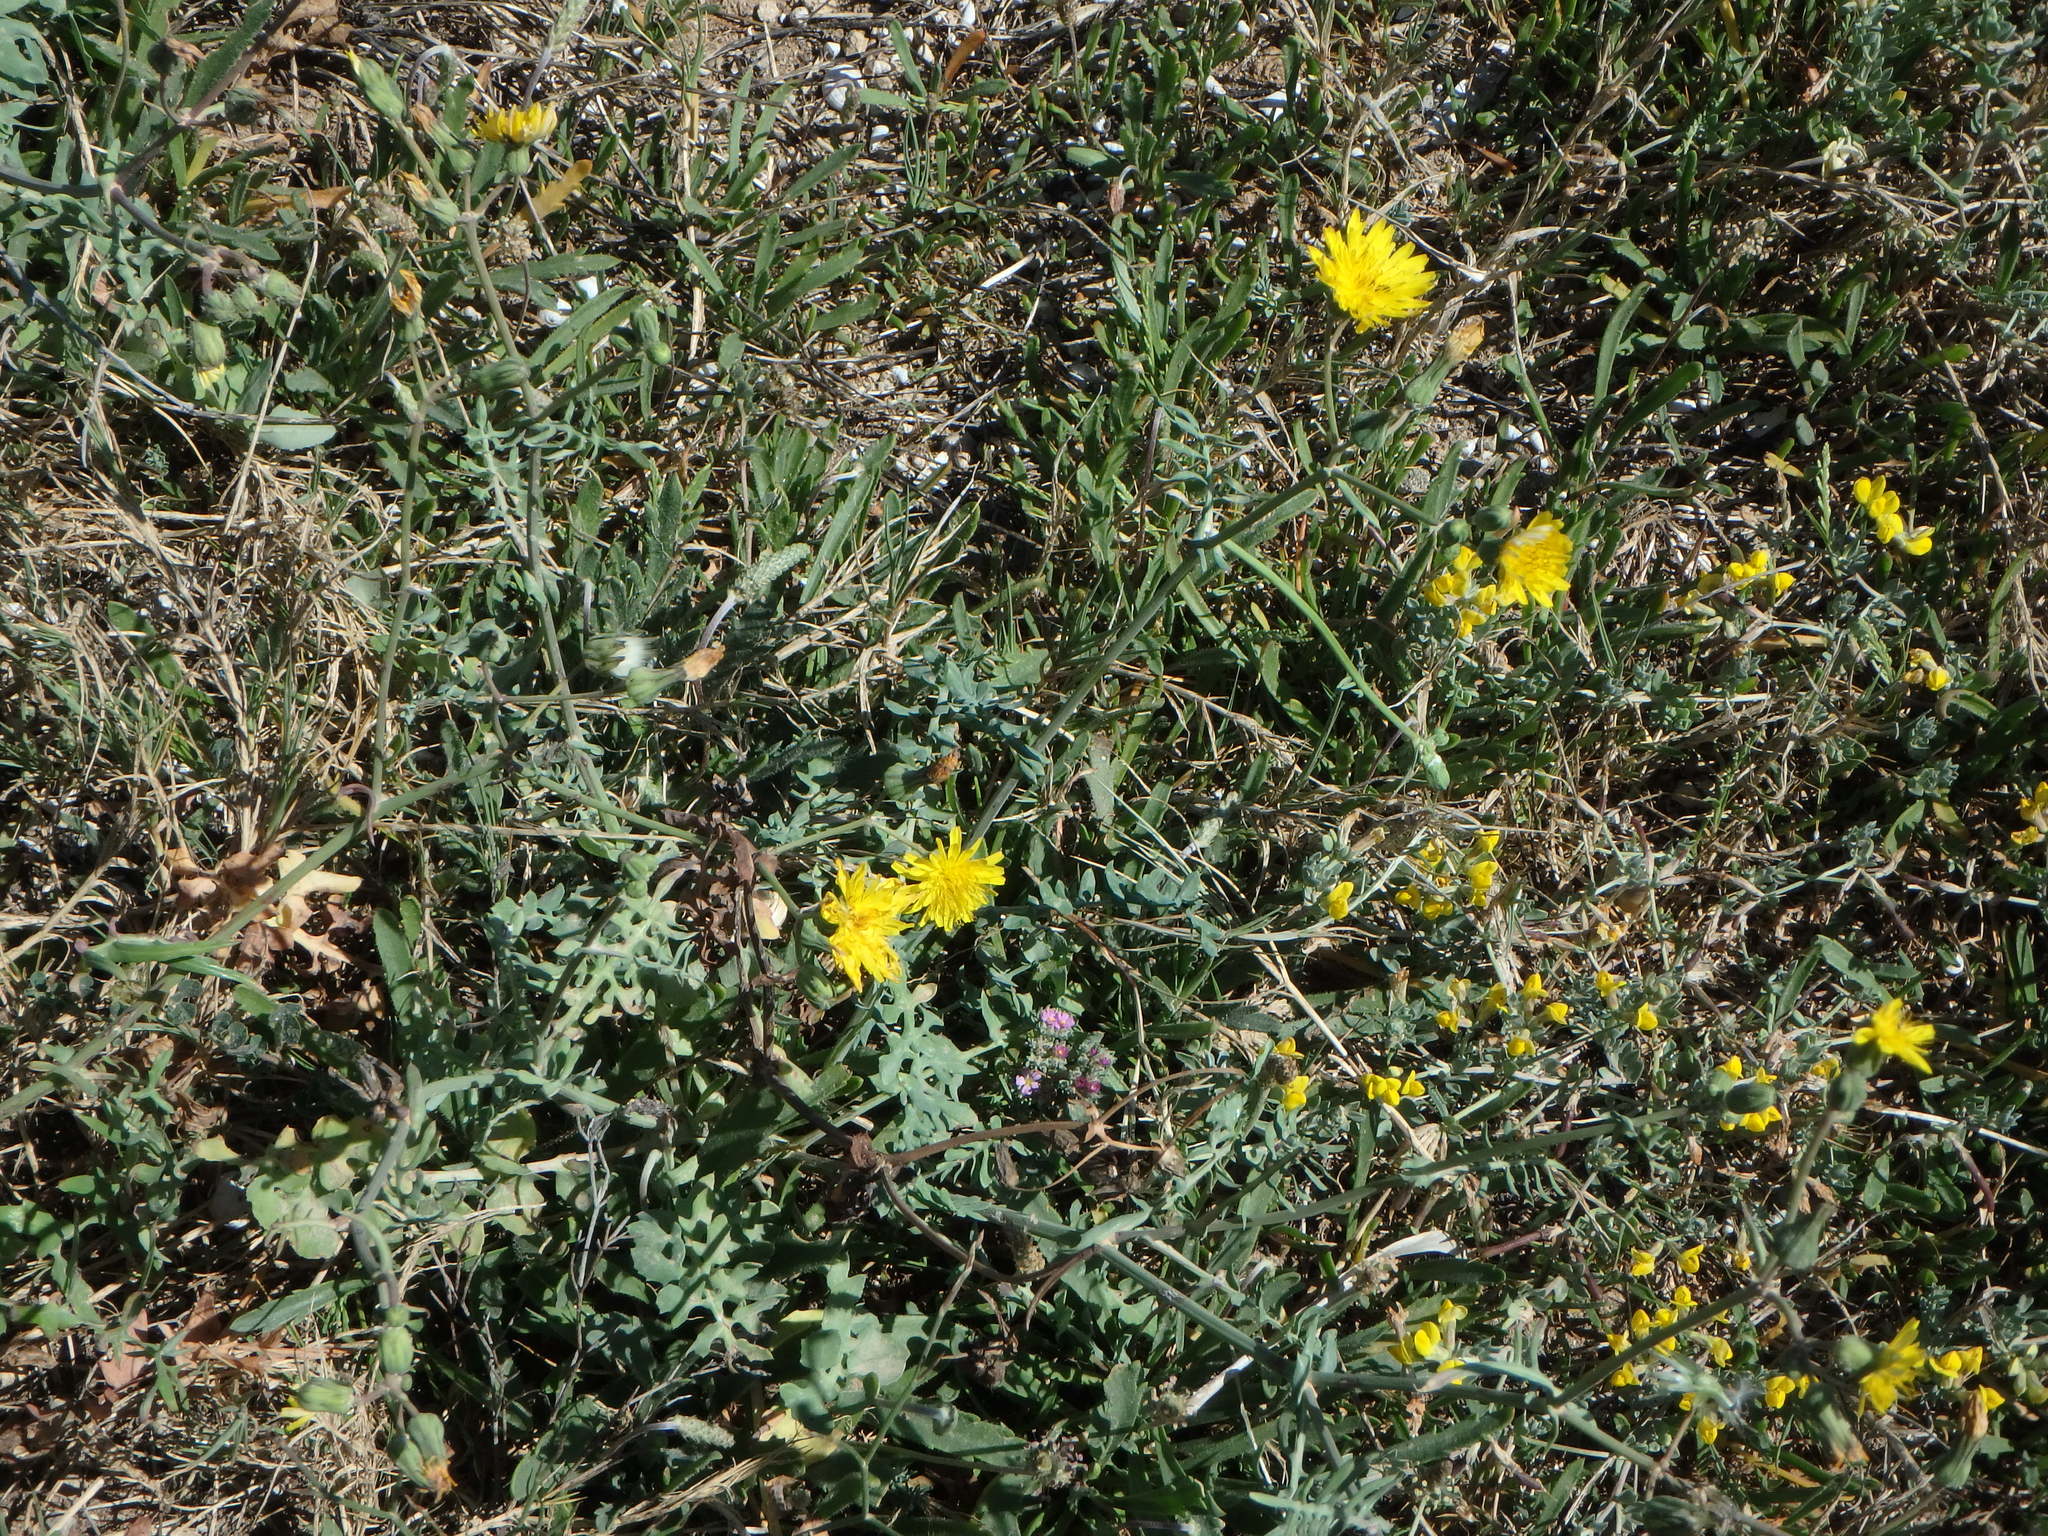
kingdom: Plantae
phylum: Tracheophyta
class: Magnoliopsida
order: Asterales
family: Asteraceae
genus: Sonchus
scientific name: Sonchus tenerrimus
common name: Clammy sowthistle
